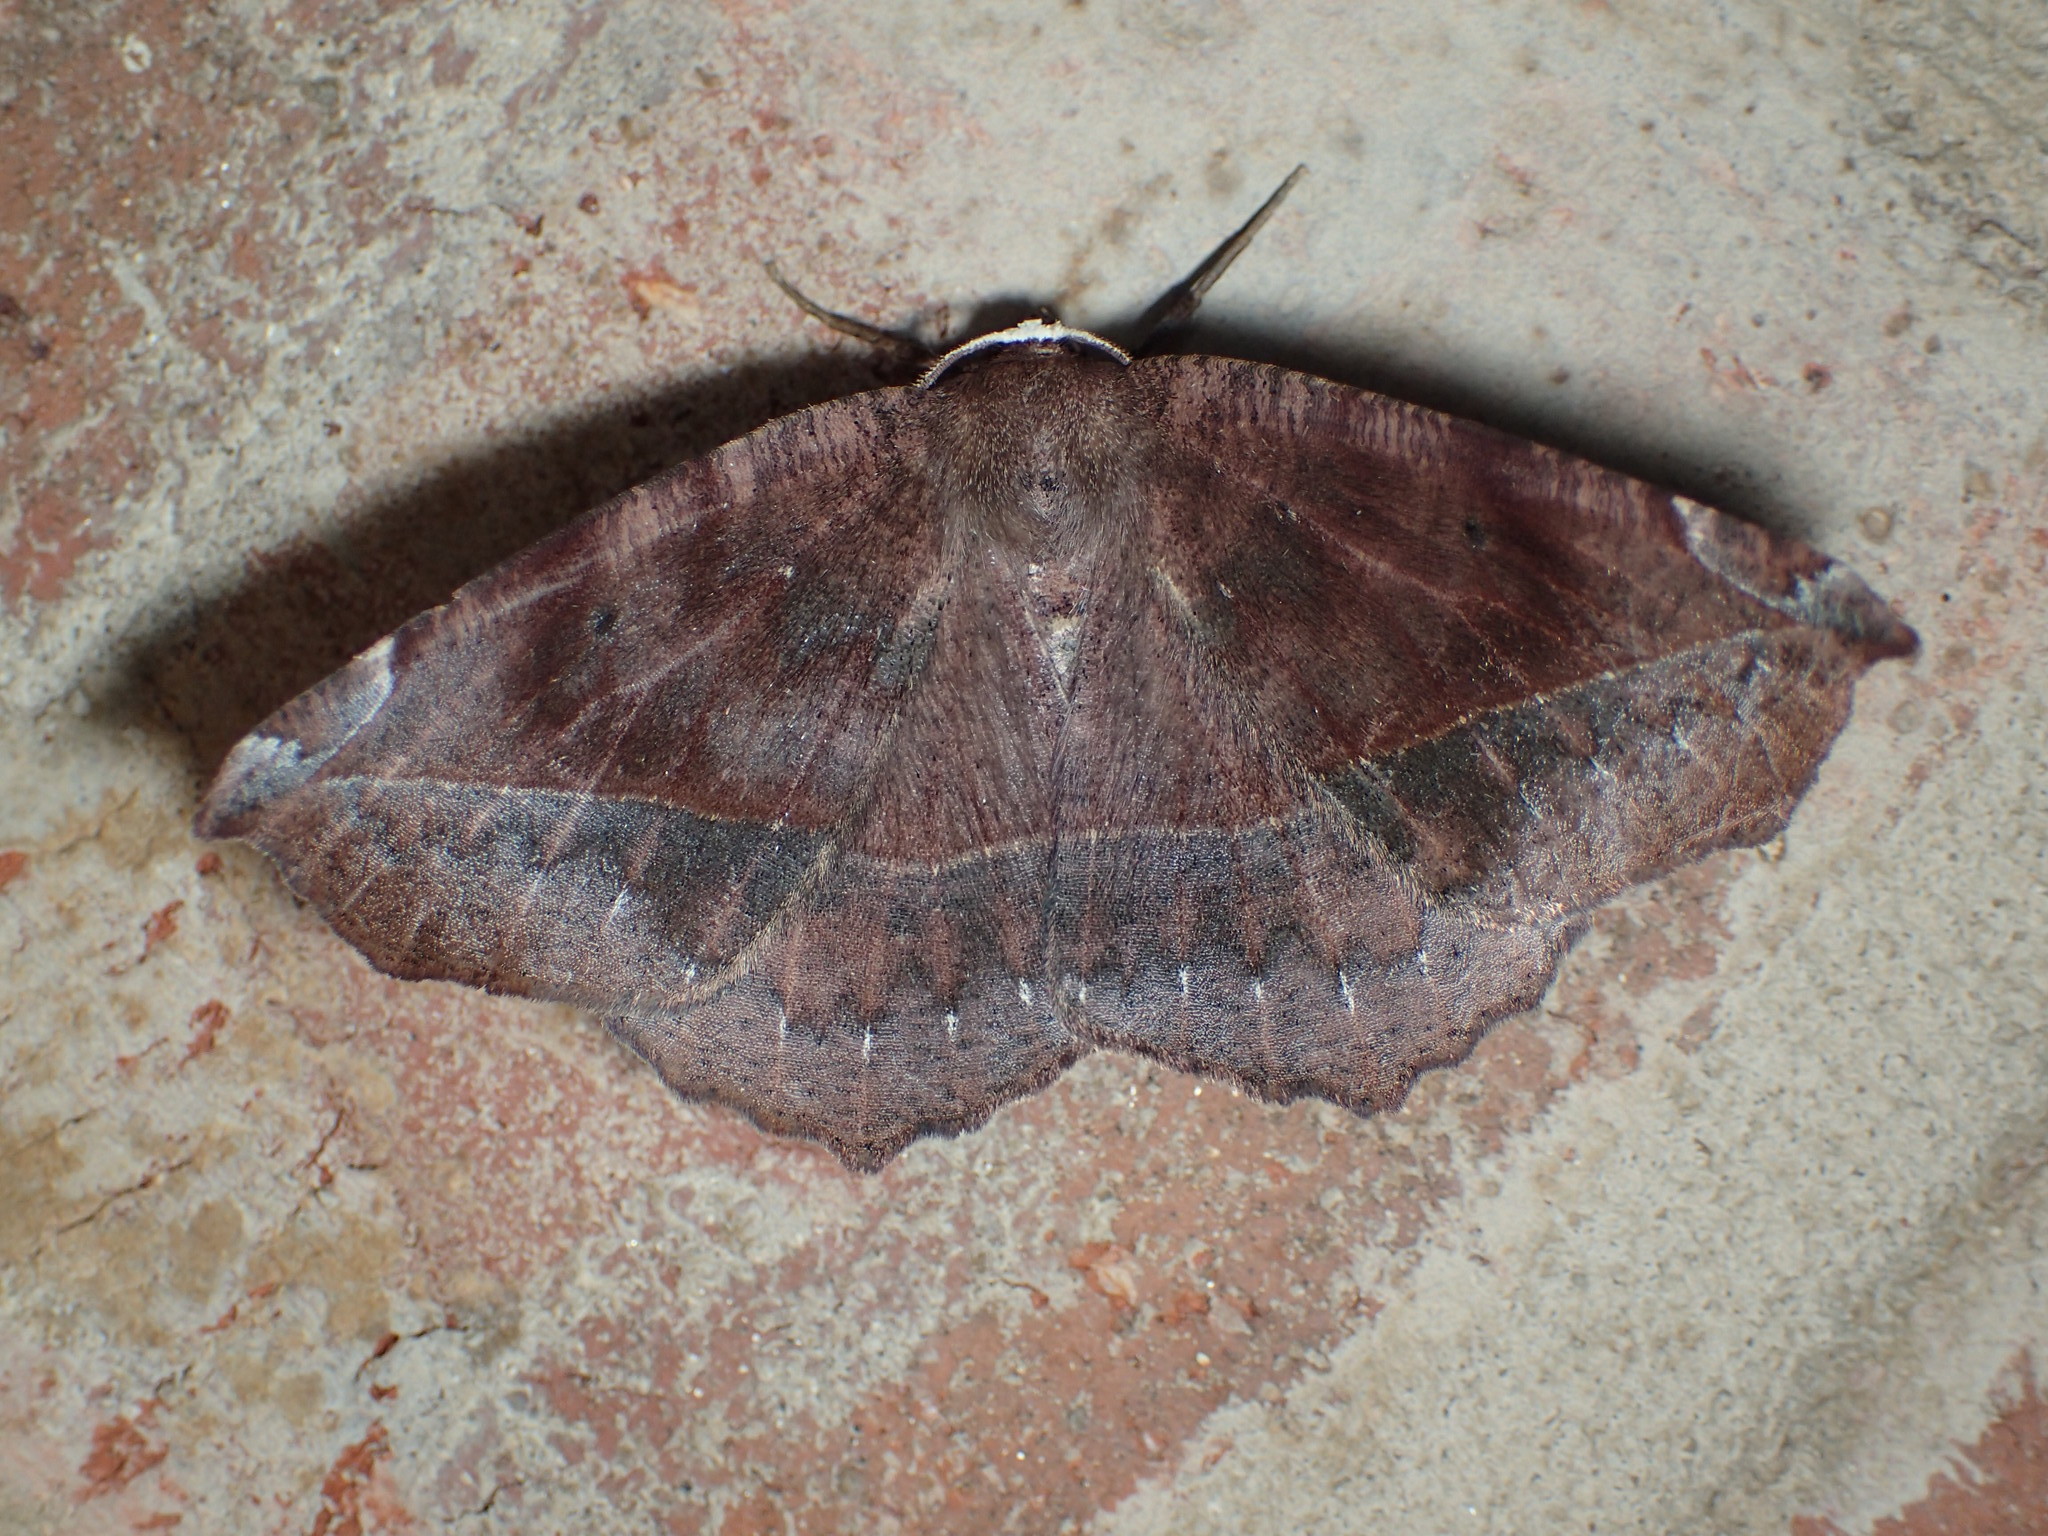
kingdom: Animalia
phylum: Arthropoda
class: Insecta
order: Lepidoptera
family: Geometridae
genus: Eutrapela
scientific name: Eutrapela clemataria
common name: Curved-toothed geometer
